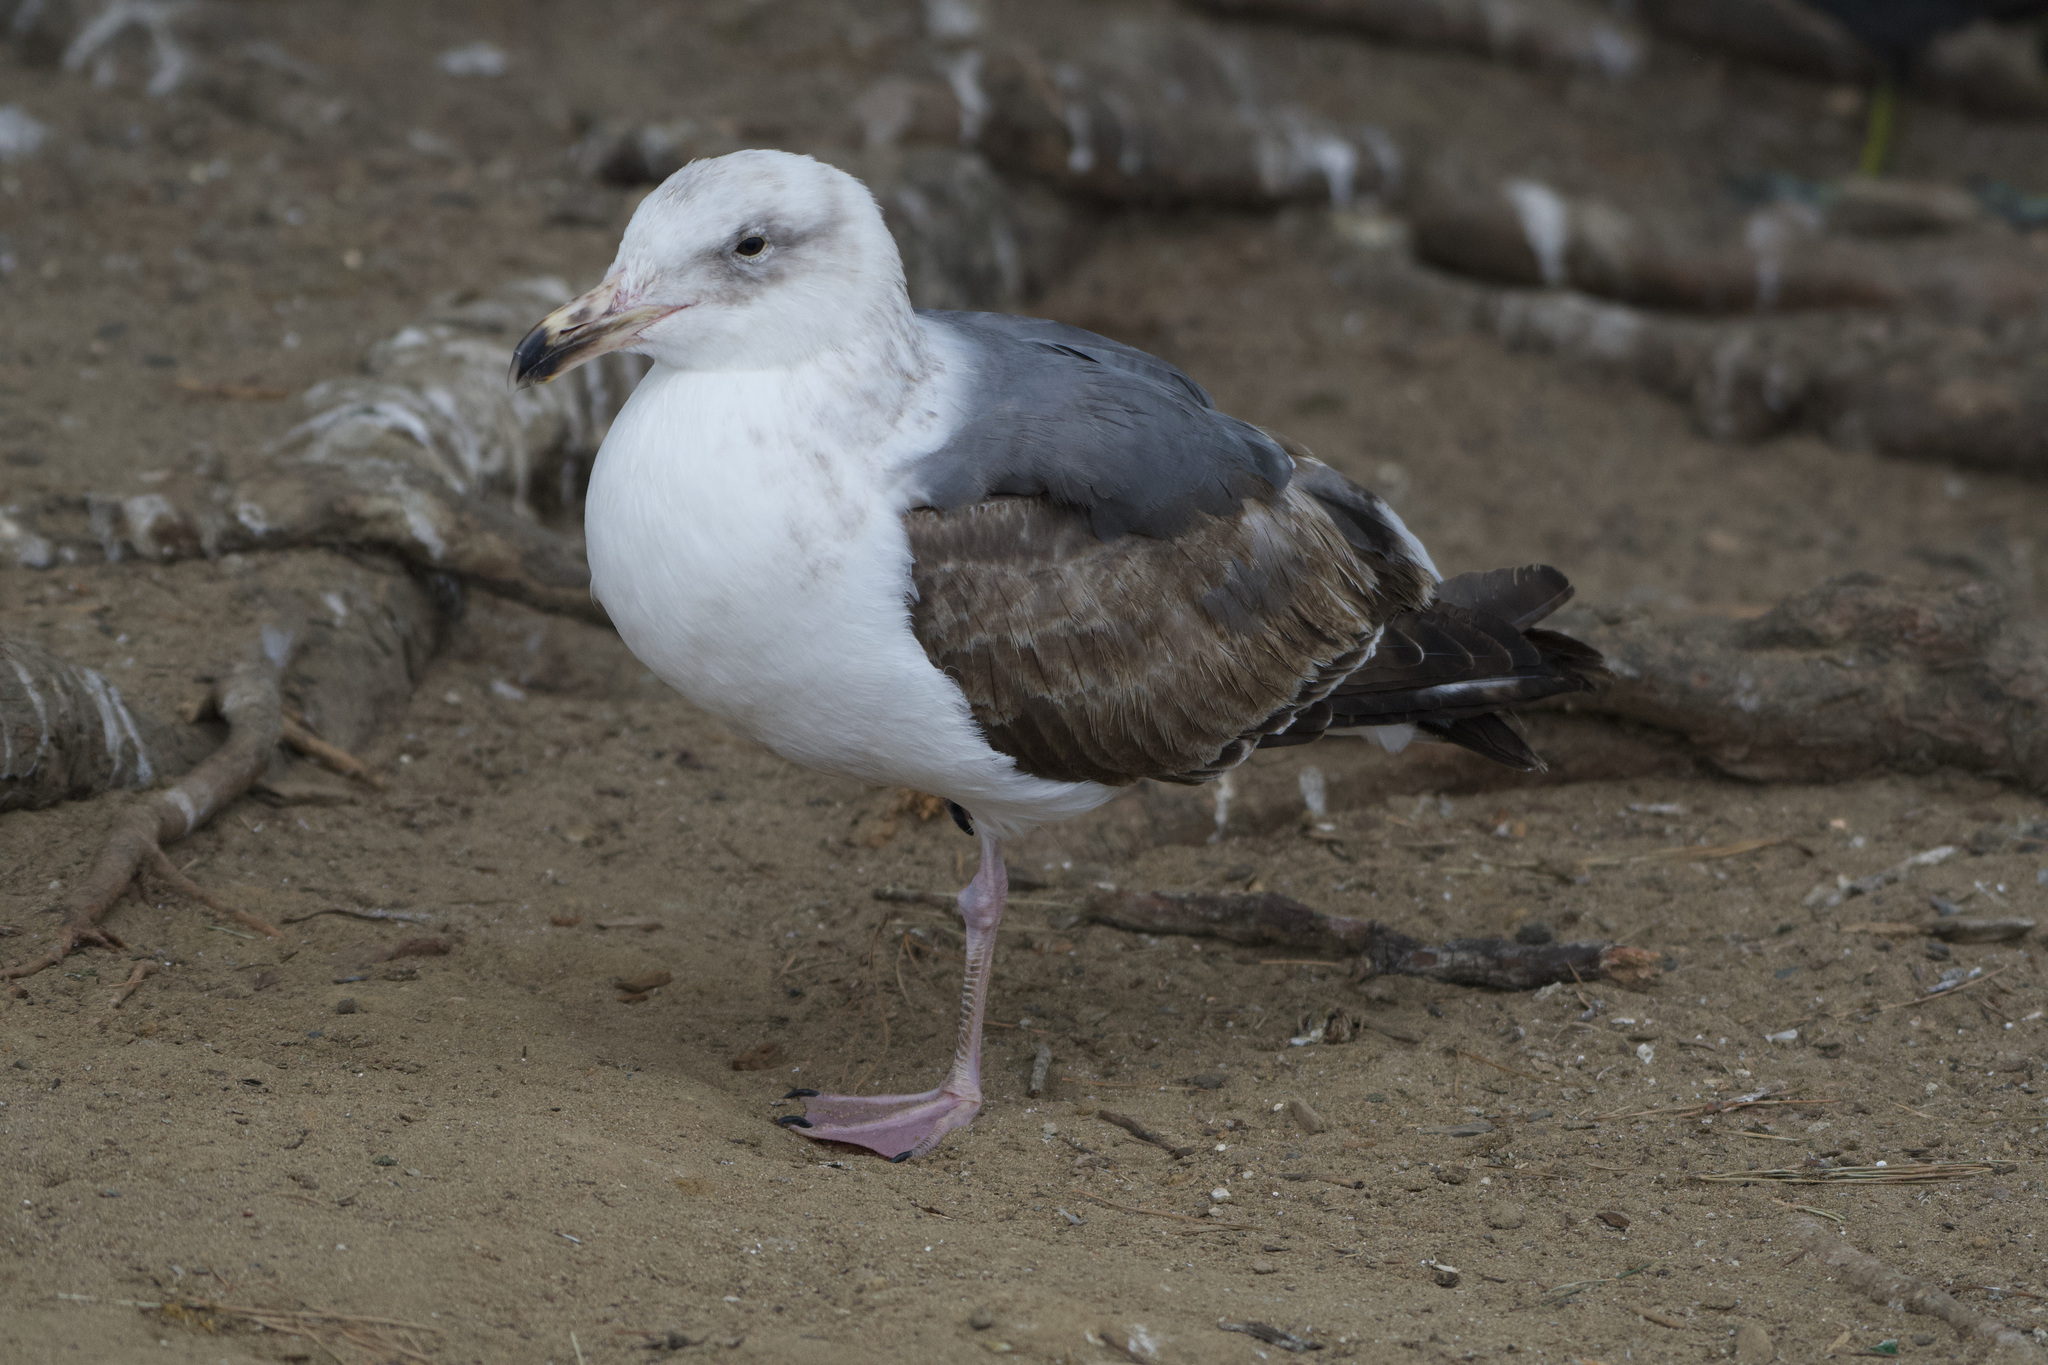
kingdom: Animalia
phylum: Chordata
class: Aves
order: Charadriiformes
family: Laridae
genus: Larus
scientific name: Larus occidentalis
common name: Western gull
